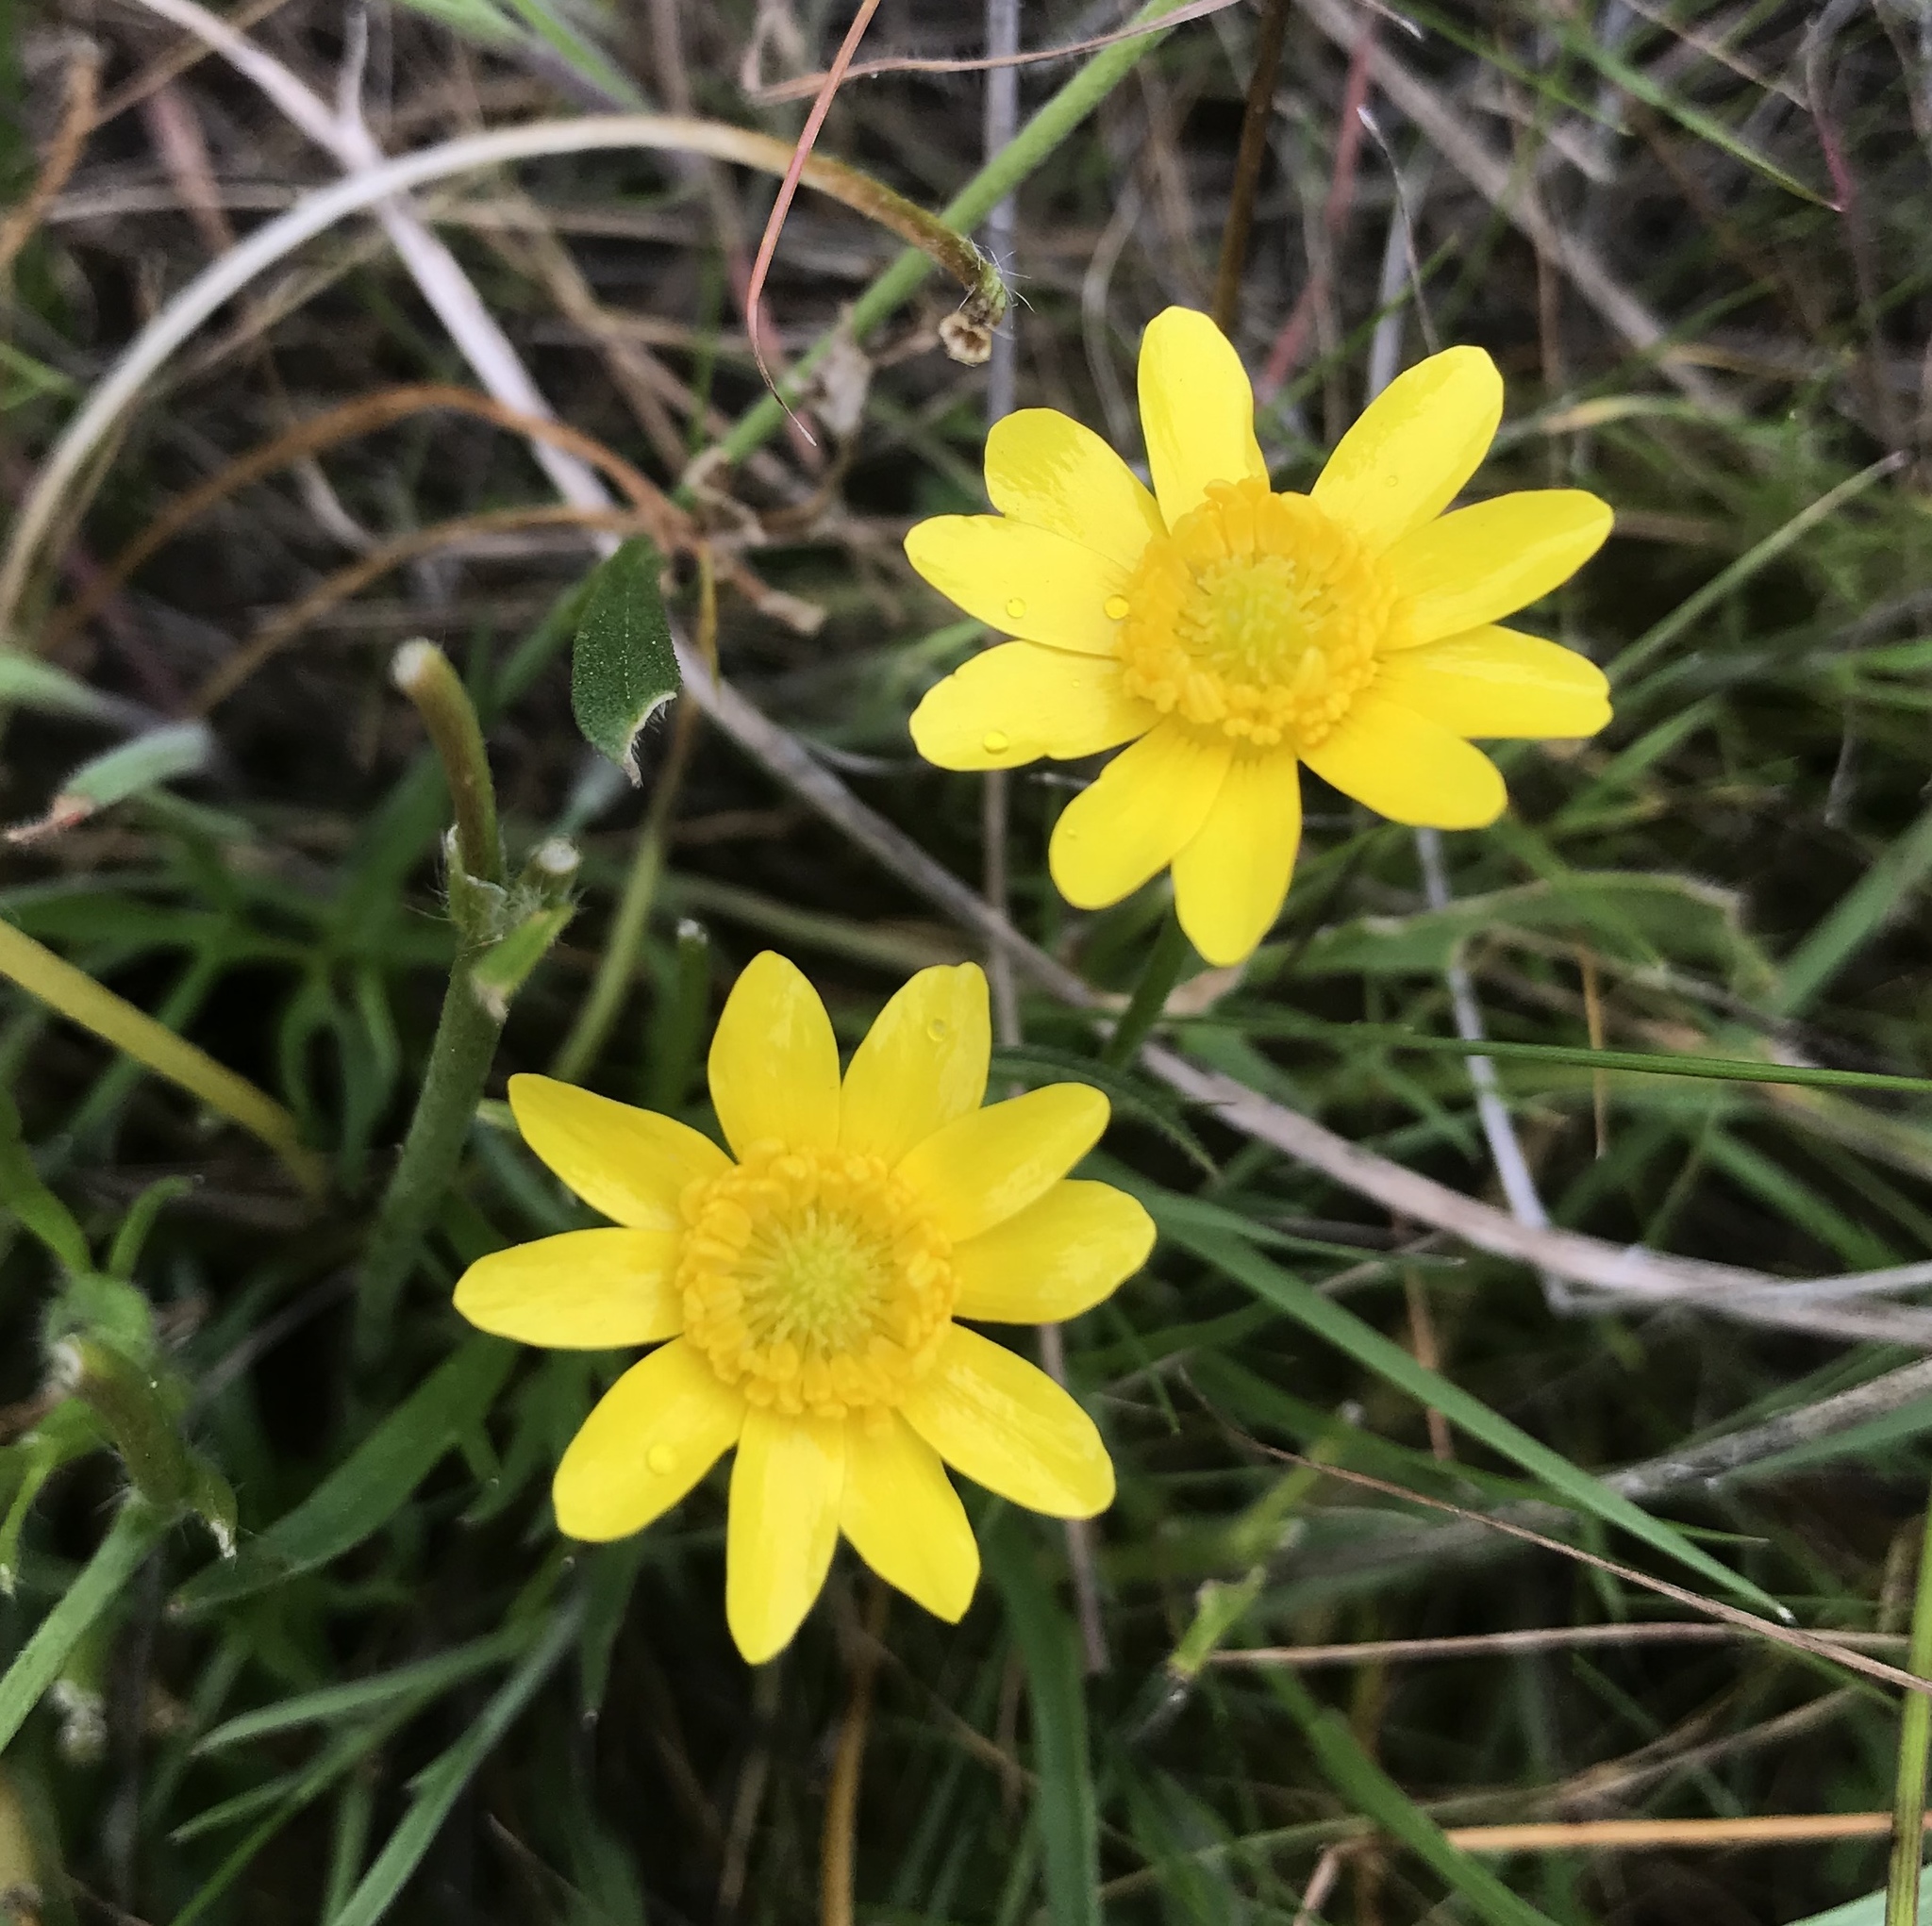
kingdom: Plantae
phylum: Tracheophyta
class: Magnoliopsida
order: Ranunculales
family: Ranunculaceae
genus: Ranunculus
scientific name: Ranunculus californicus
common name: California buttercup
